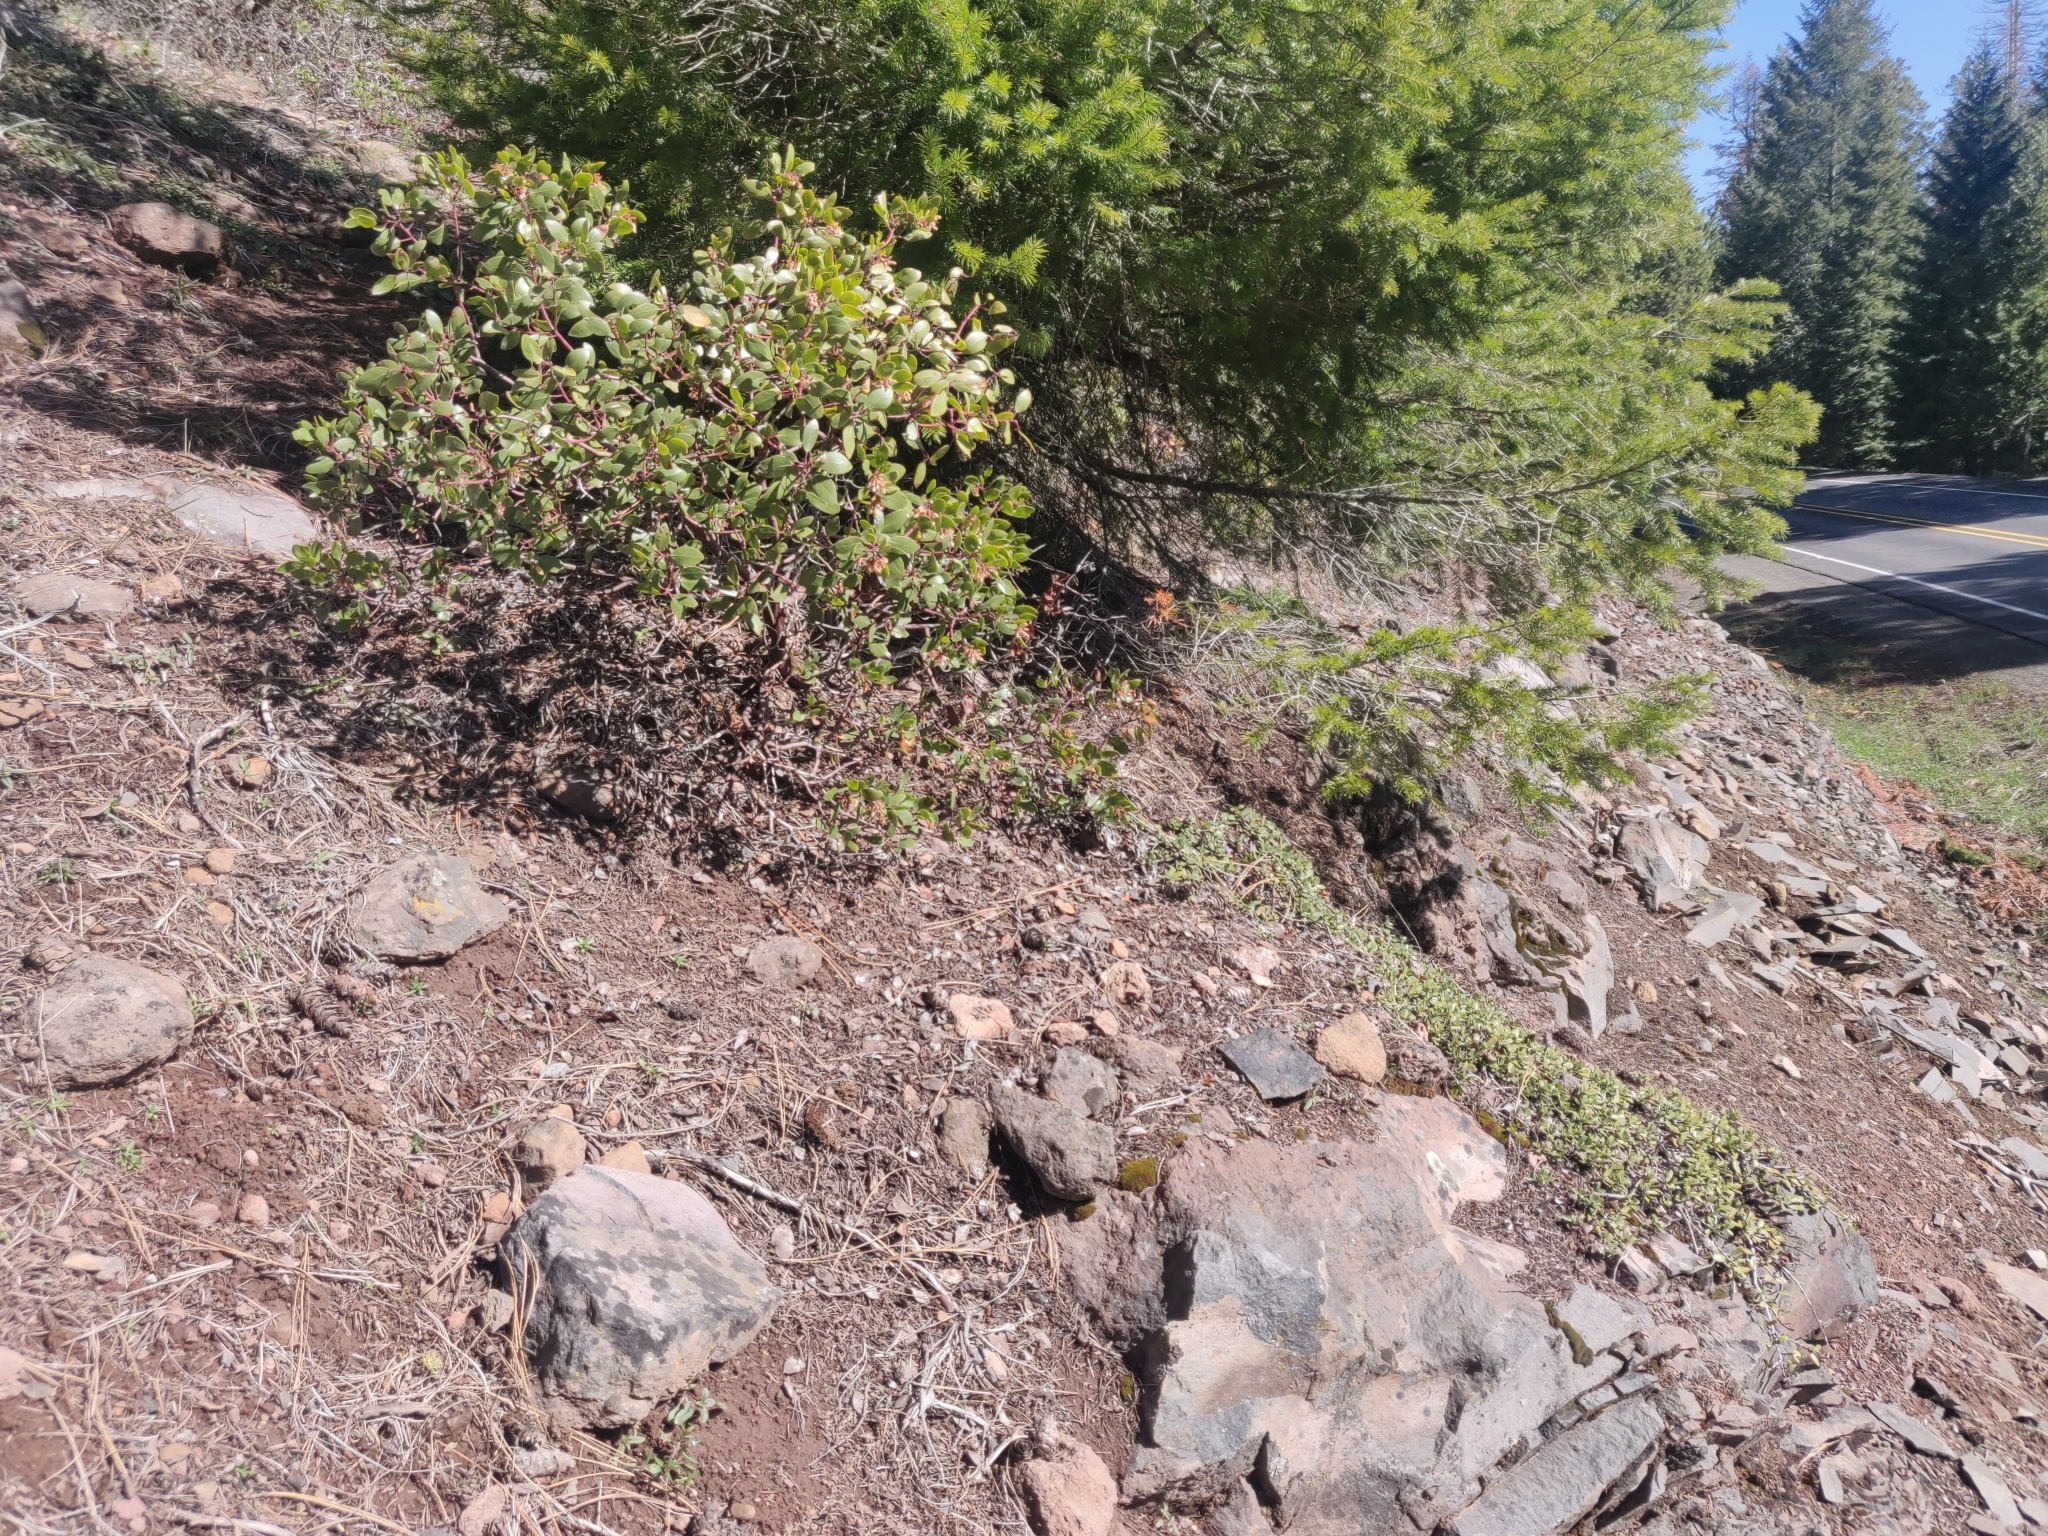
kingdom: Plantae
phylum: Tracheophyta
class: Magnoliopsida
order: Rosales
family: Rhamnaceae
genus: Ceanothus
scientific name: Ceanothus prostratus
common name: Mahala-mat
